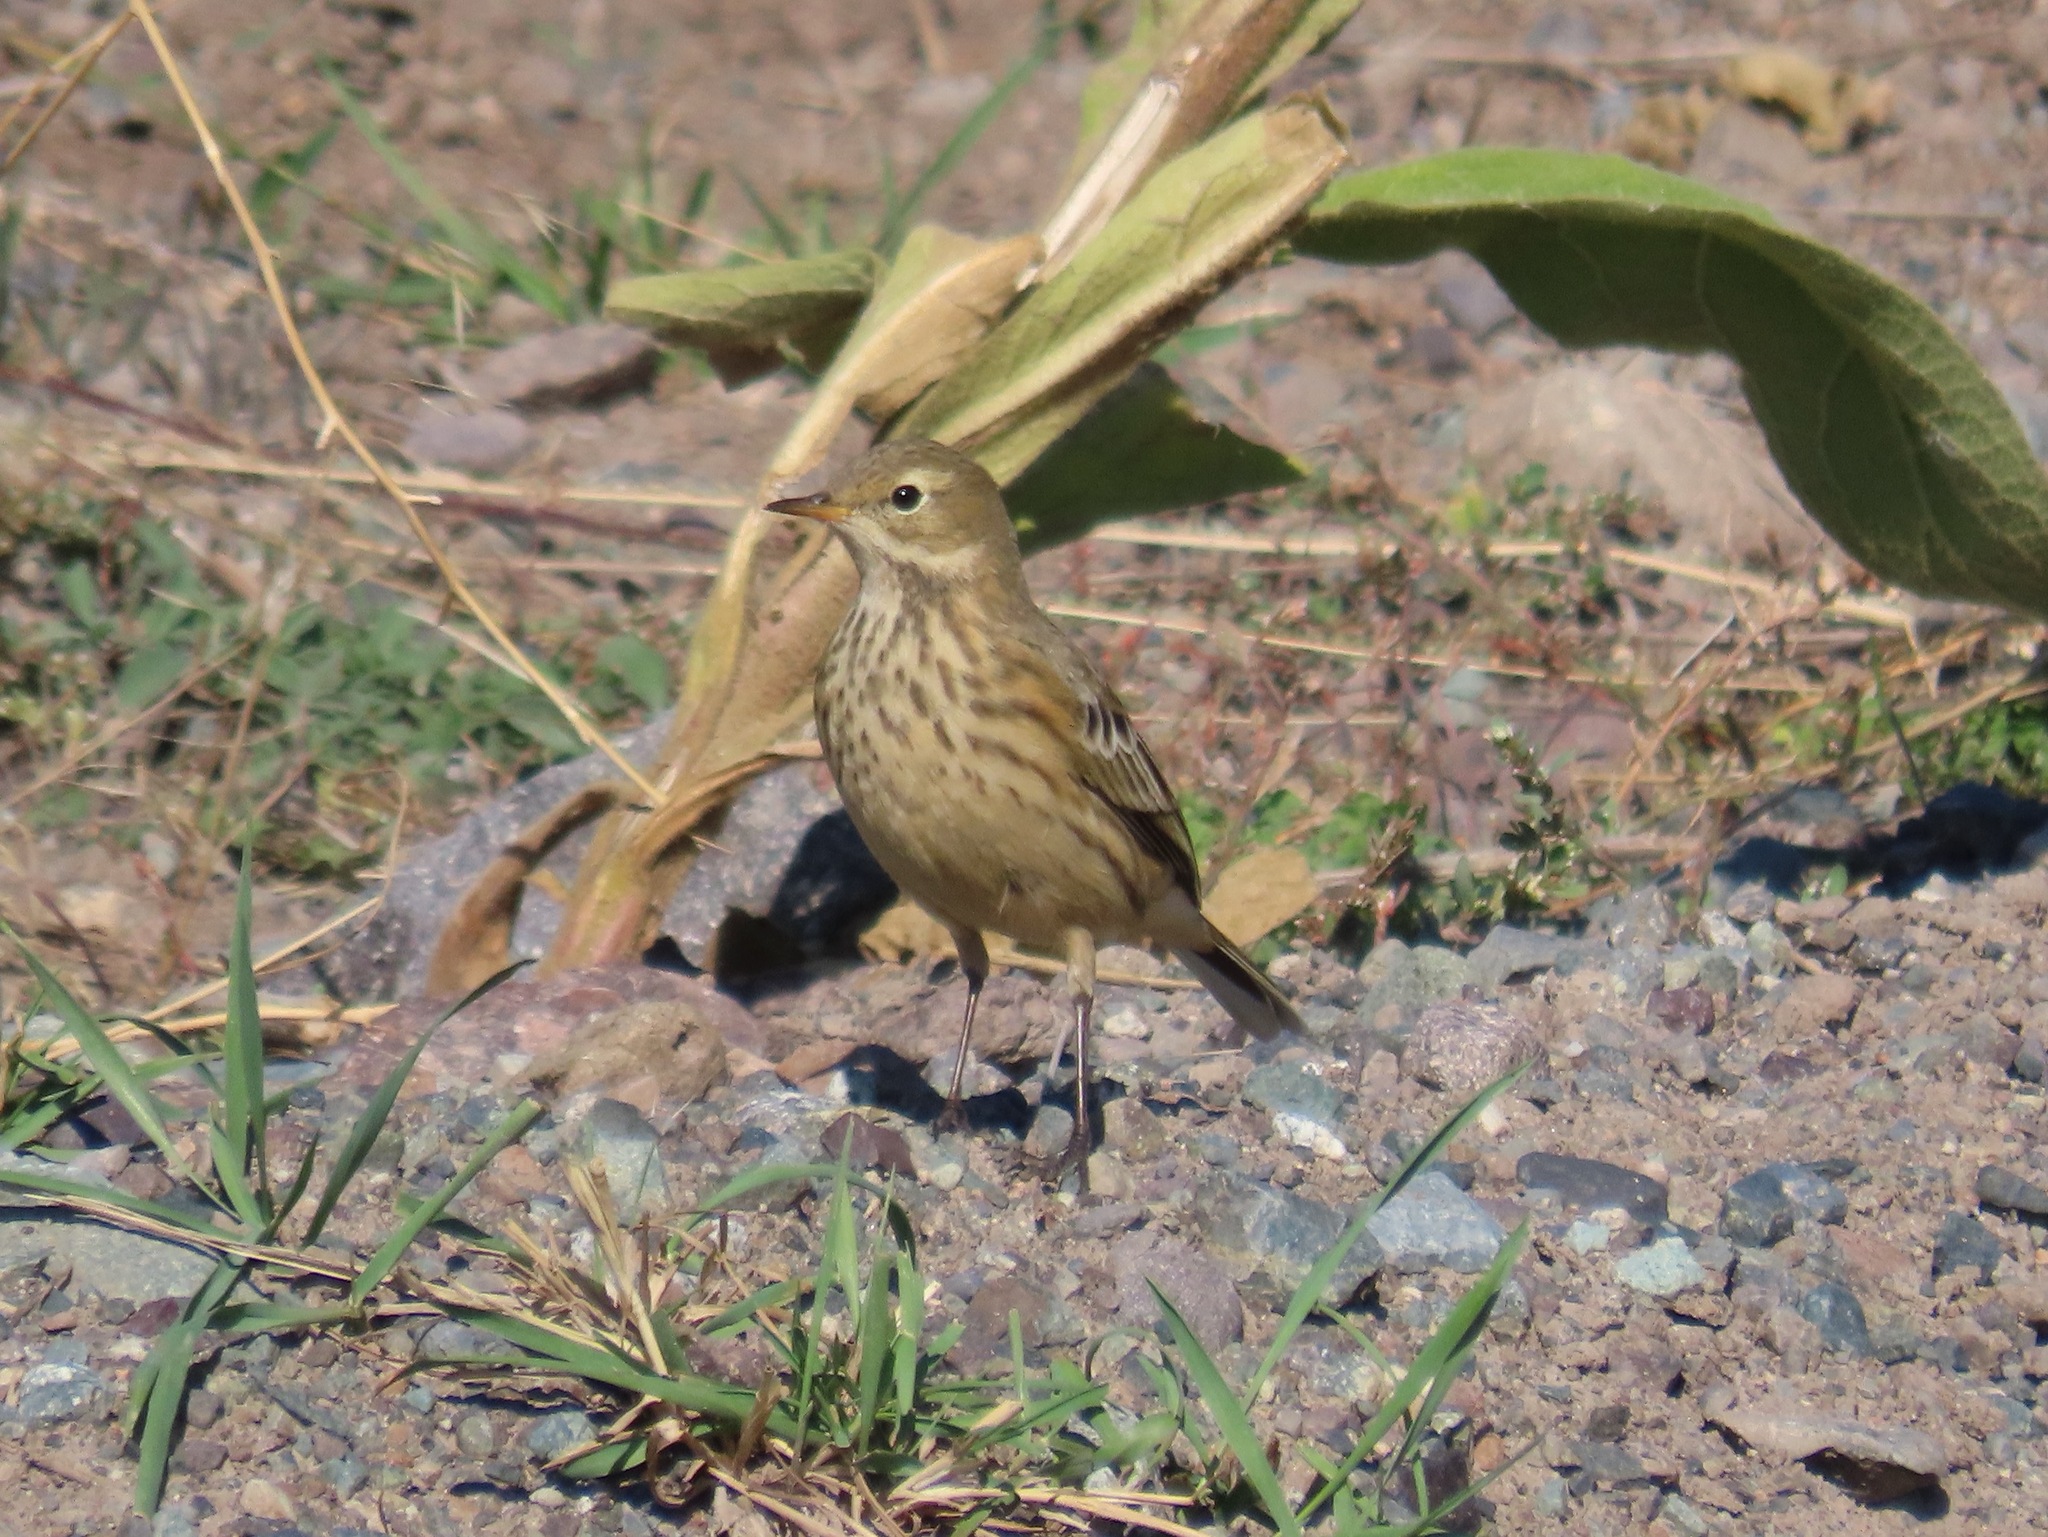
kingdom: Animalia
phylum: Chordata
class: Aves
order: Passeriformes
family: Motacillidae
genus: Anthus
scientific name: Anthus rubescens
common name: Buff-bellied pipit
